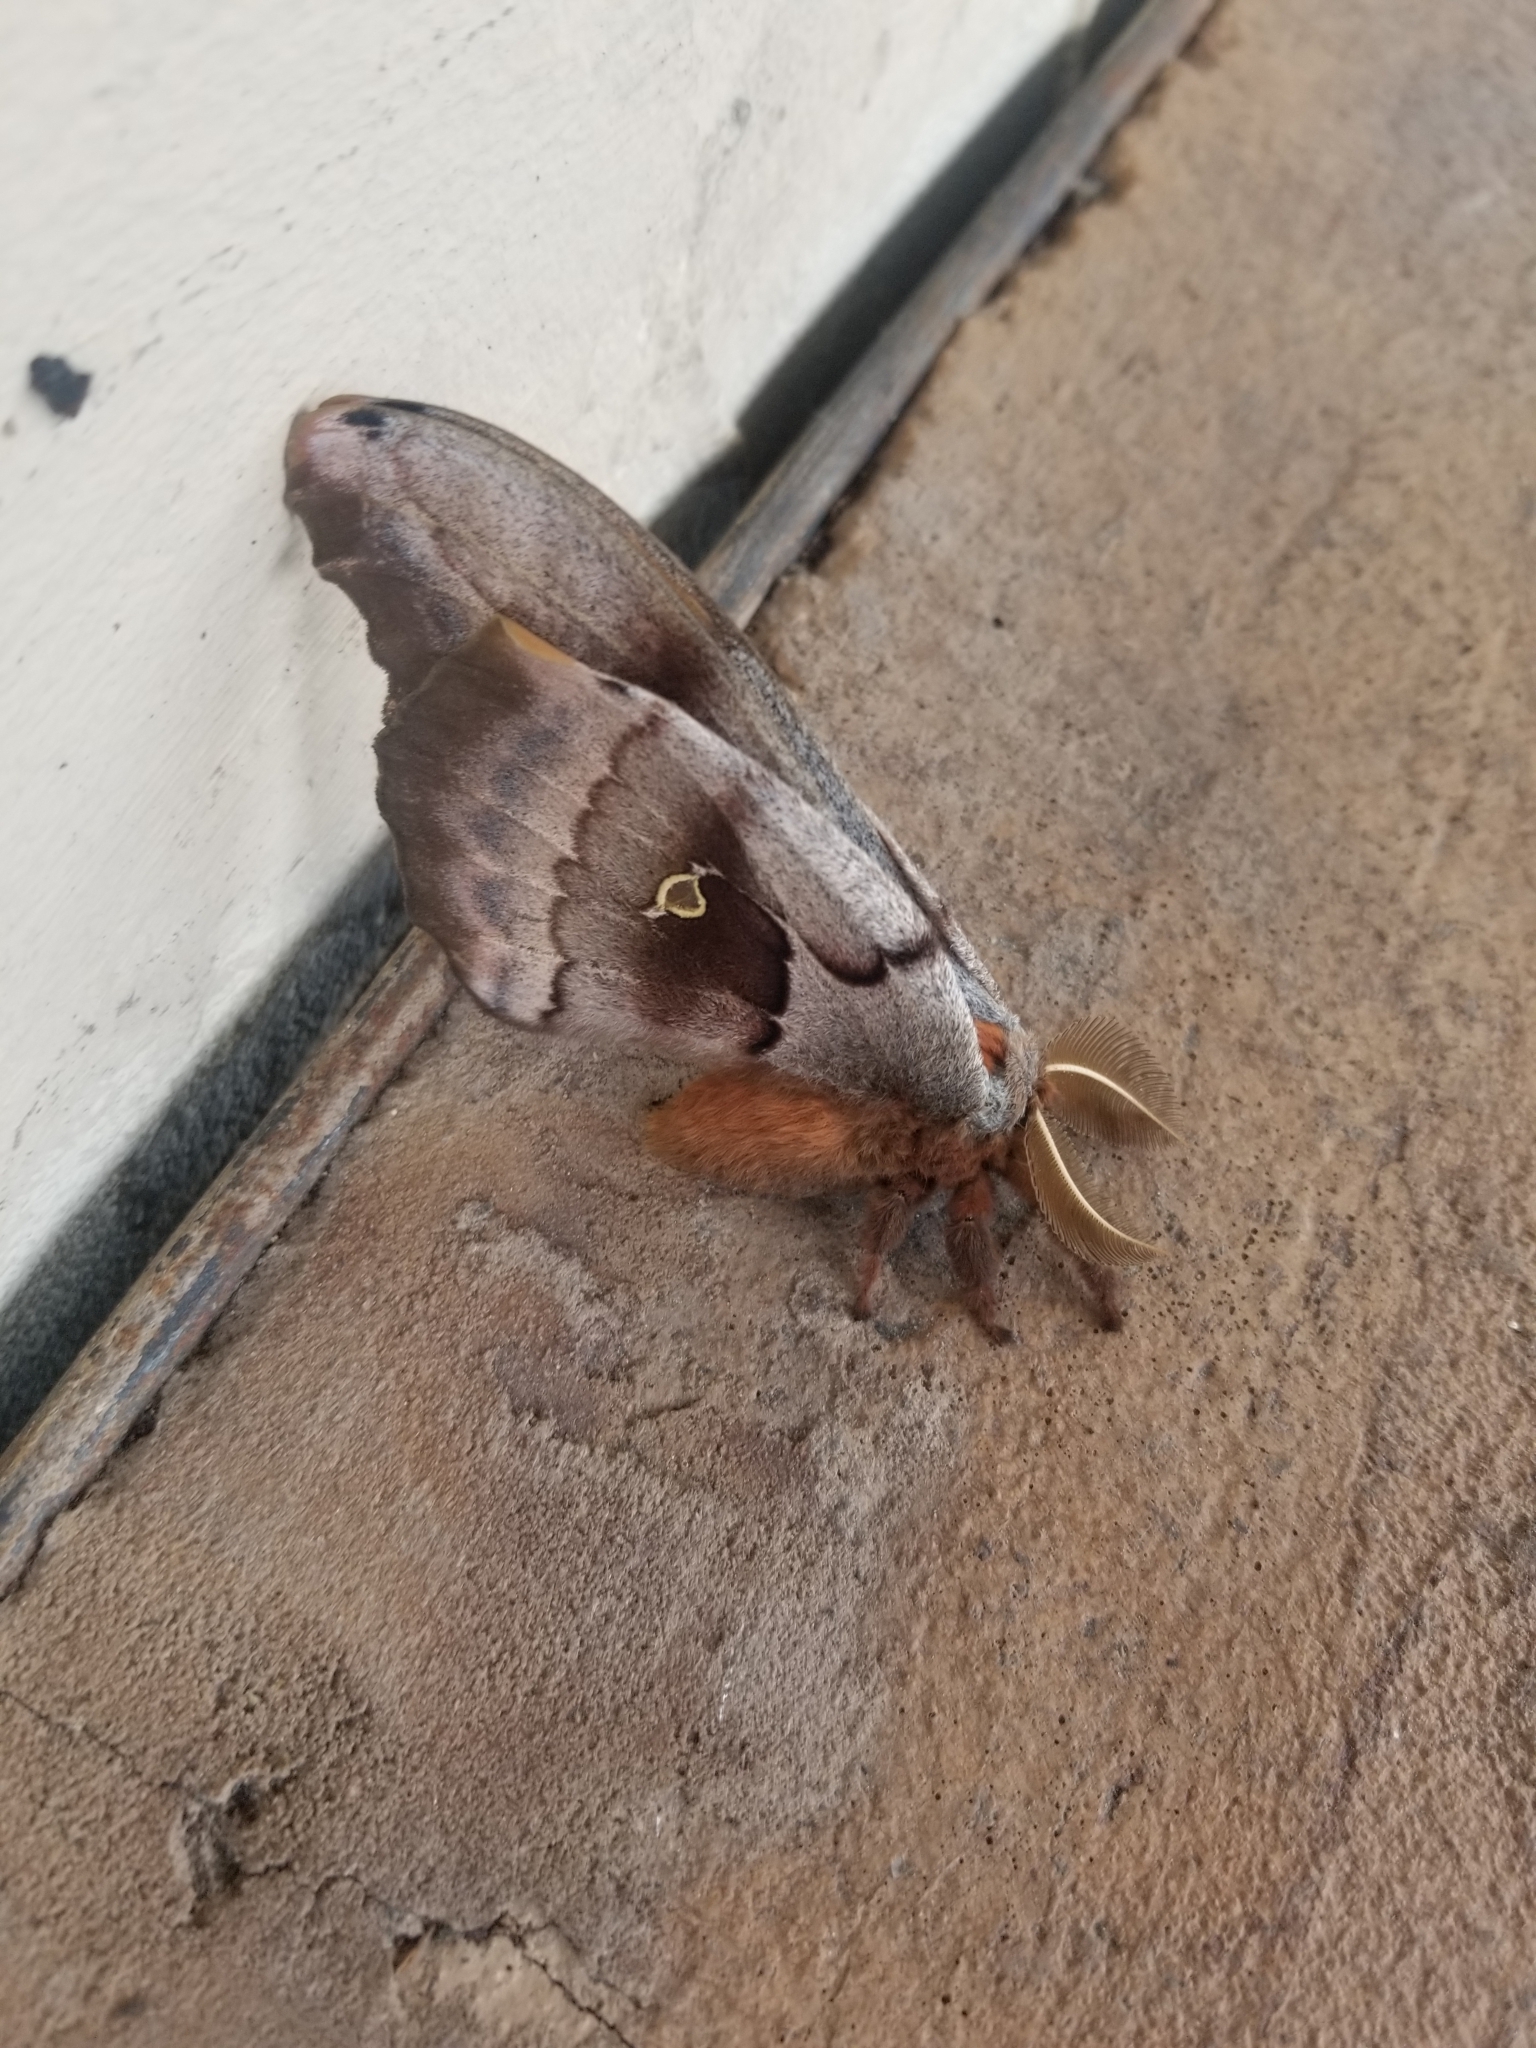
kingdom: Animalia
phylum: Arthropoda
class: Insecta
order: Lepidoptera
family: Saturniidae
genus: Antheraea
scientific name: Antheraea polyphemus
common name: Polyphemus moth
